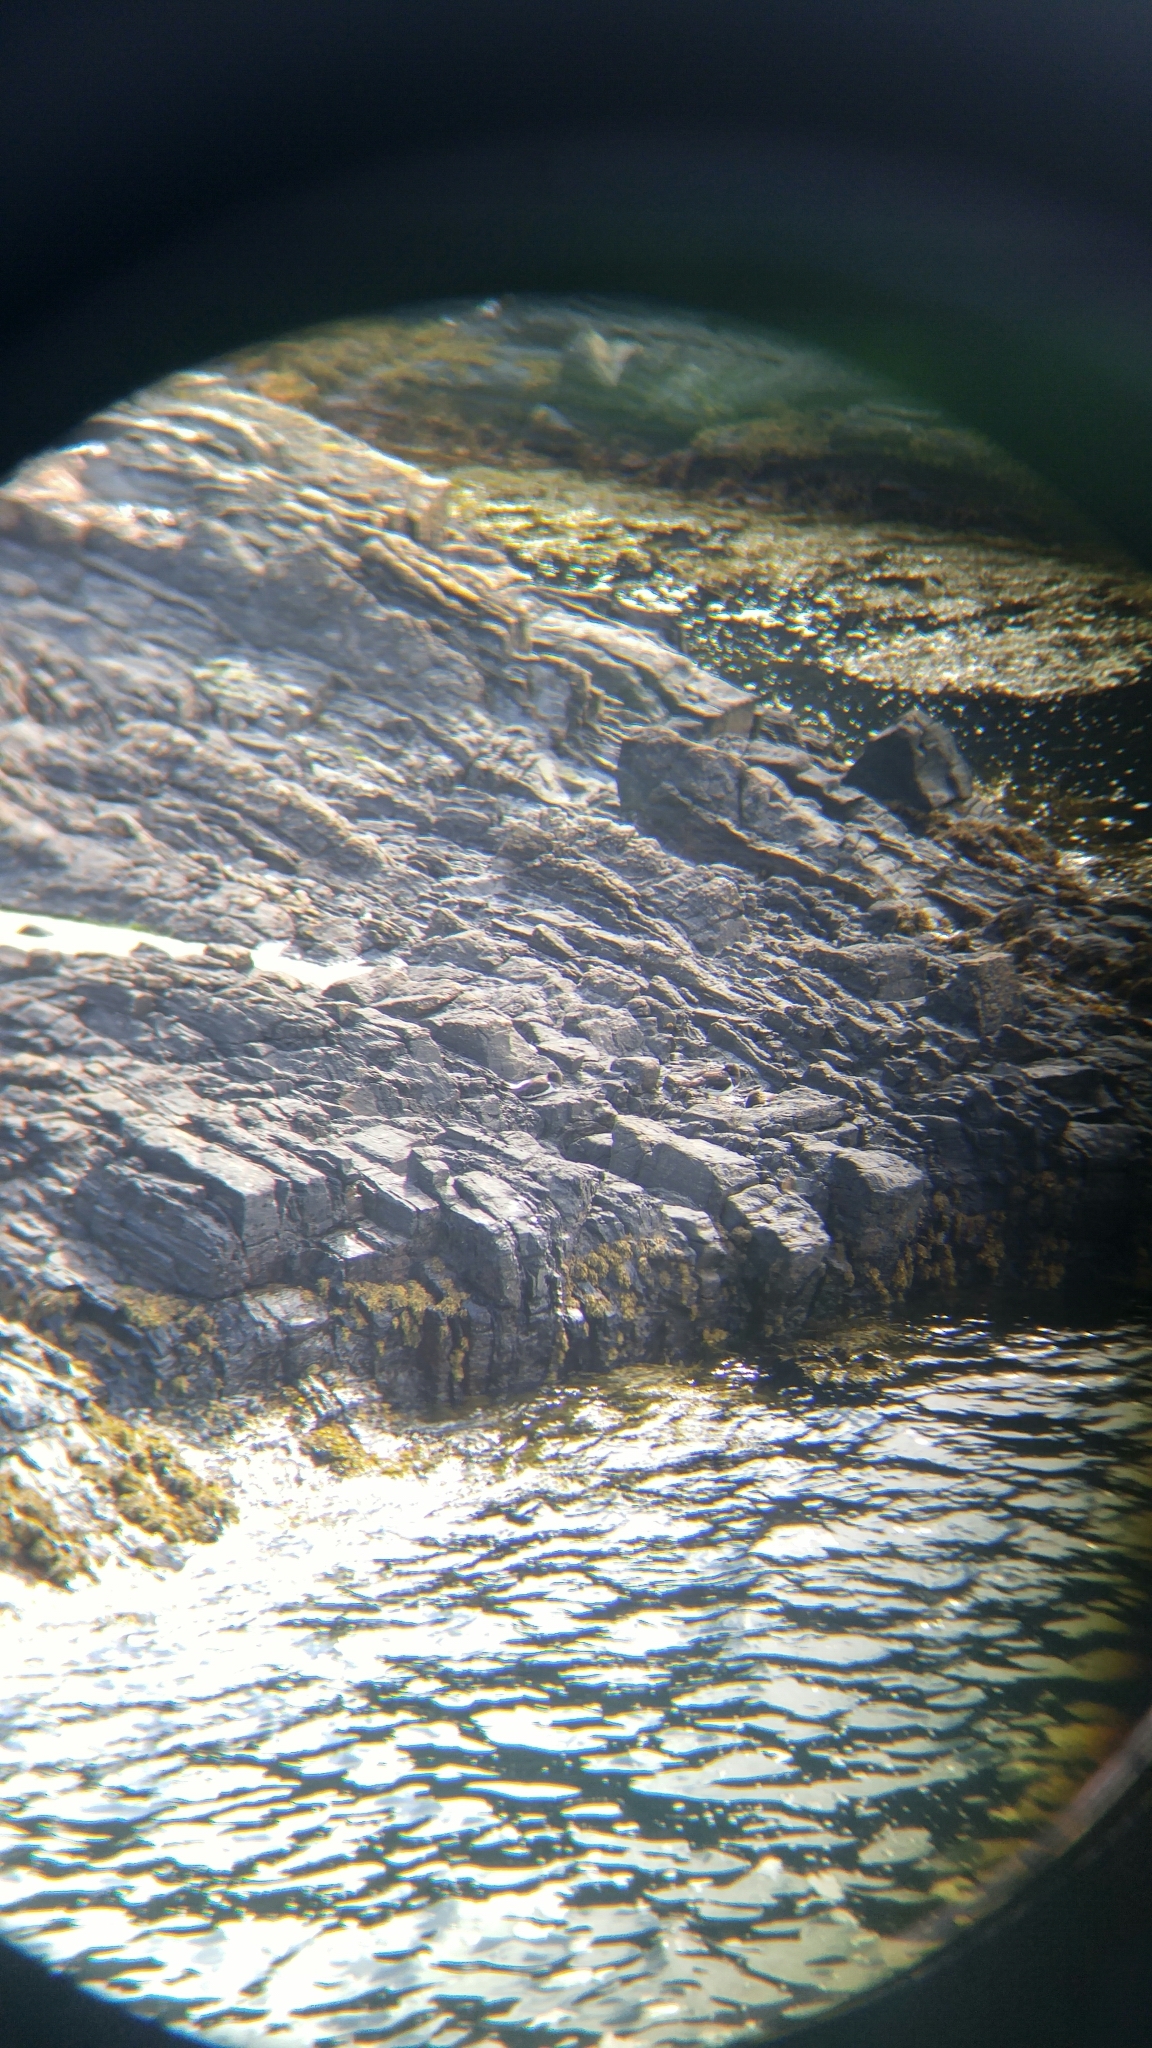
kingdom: Animalia
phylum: Chordata
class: Aves
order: Charadriiformes
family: Haematopodidae
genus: Haematopus
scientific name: Haematopus ostralegus
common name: Eurasian oystercatcher
